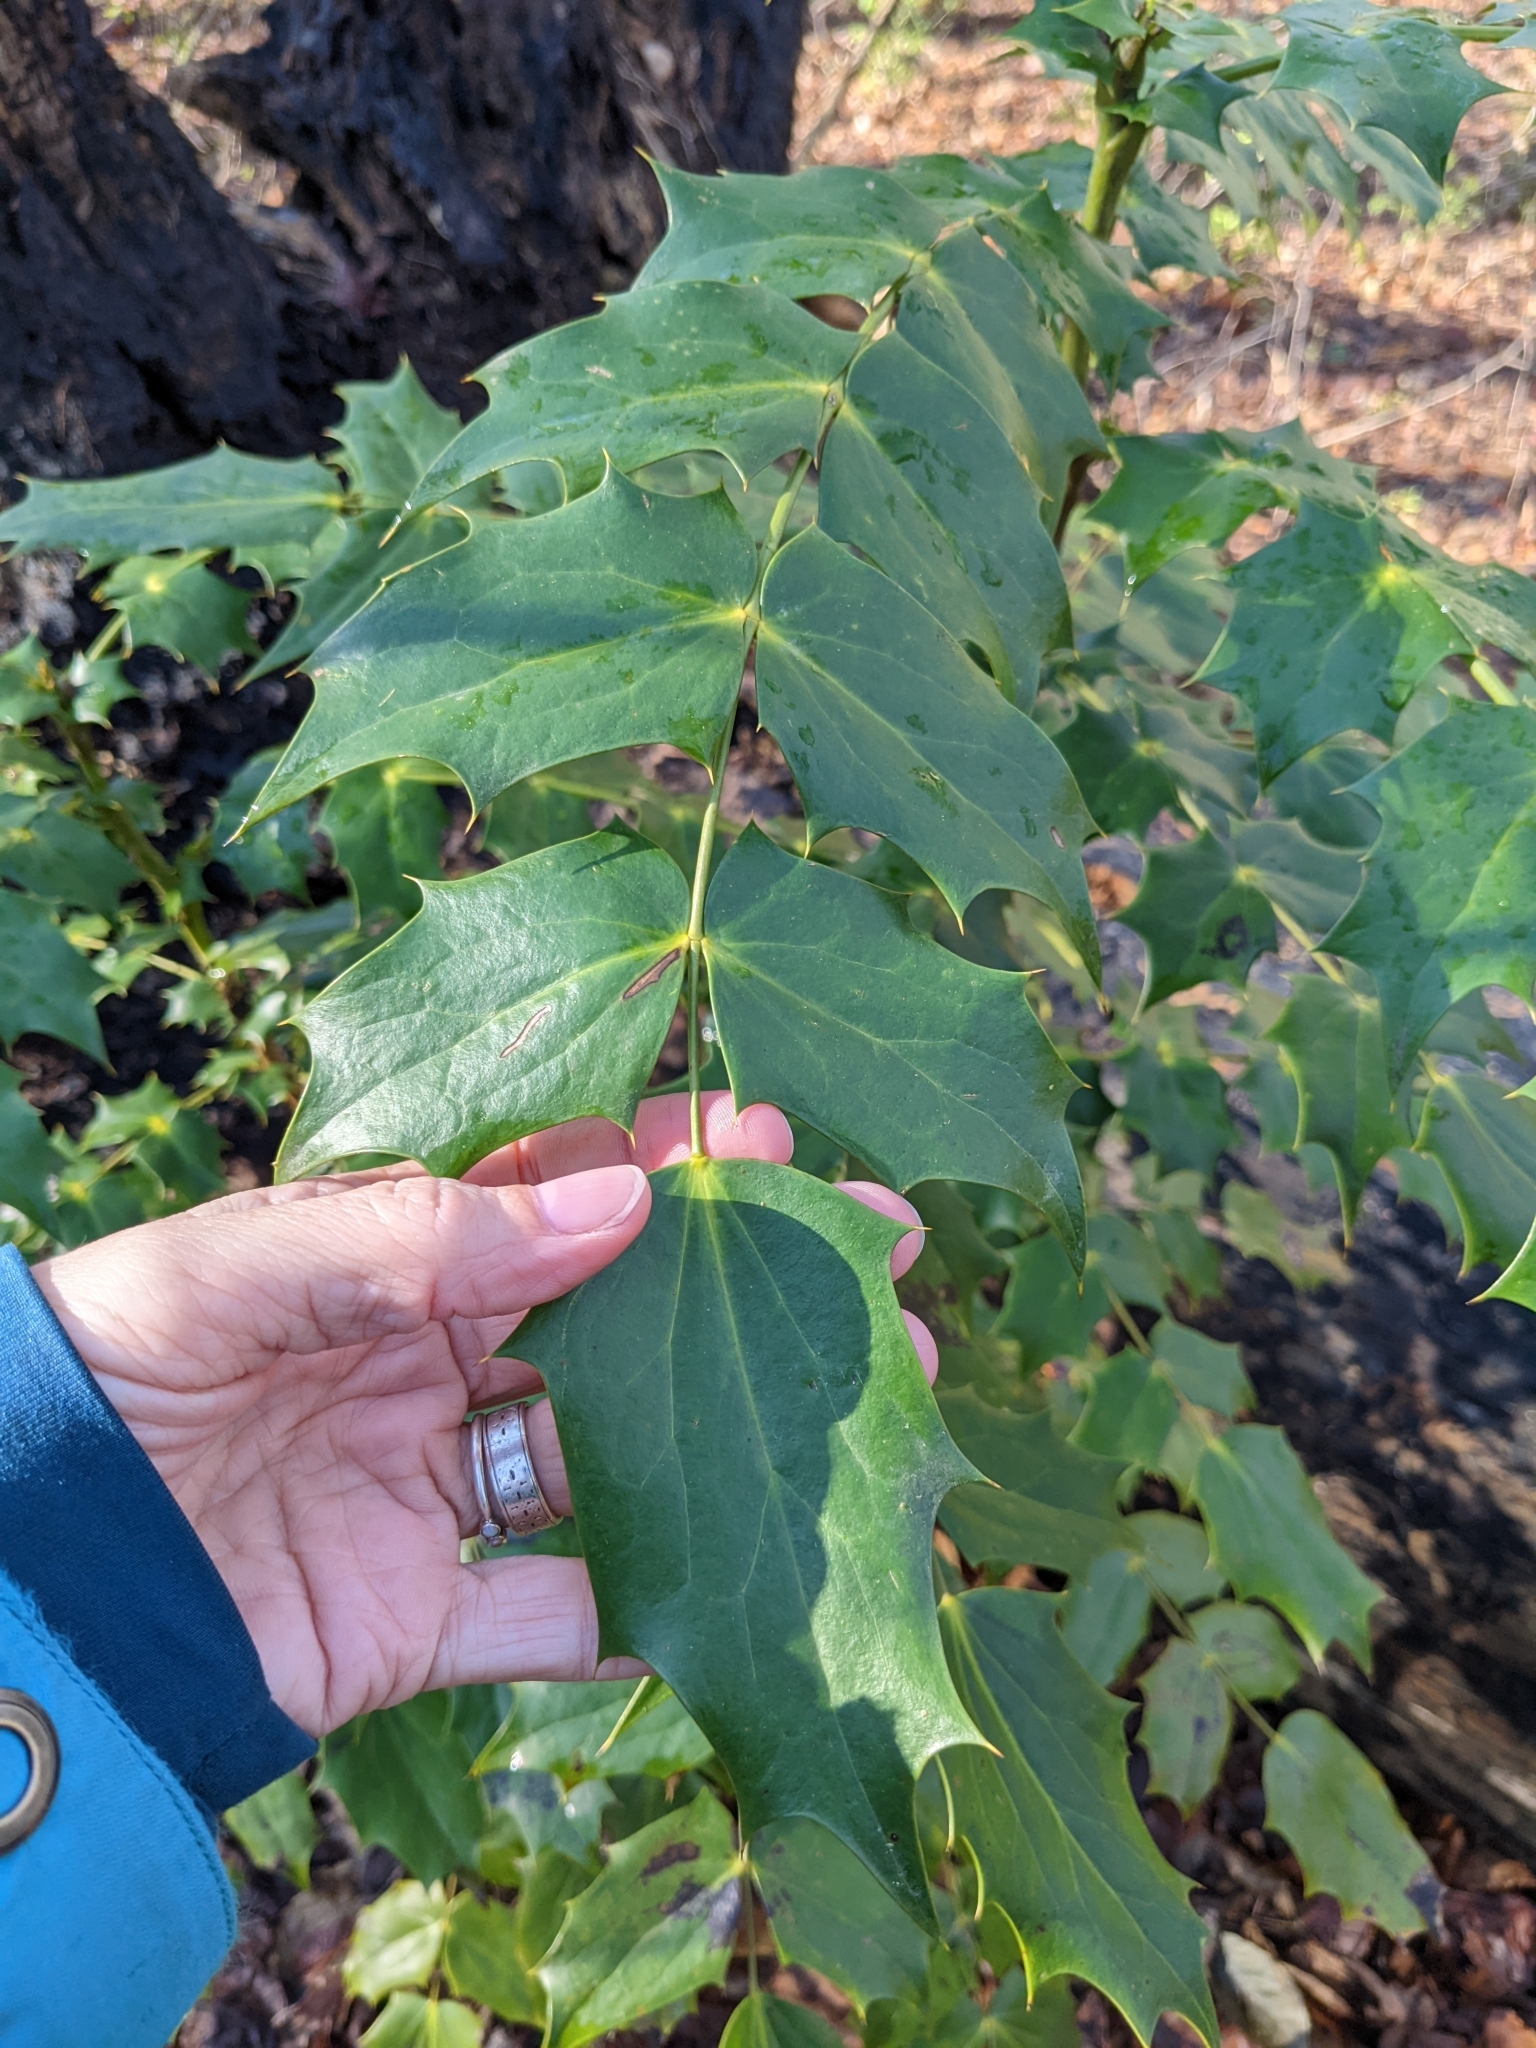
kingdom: Plantae
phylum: Tracheophyta
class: Magnoliopsida
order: Ranunculales
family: Berberidaceae
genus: Mahonia
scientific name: Mahonia bealei
